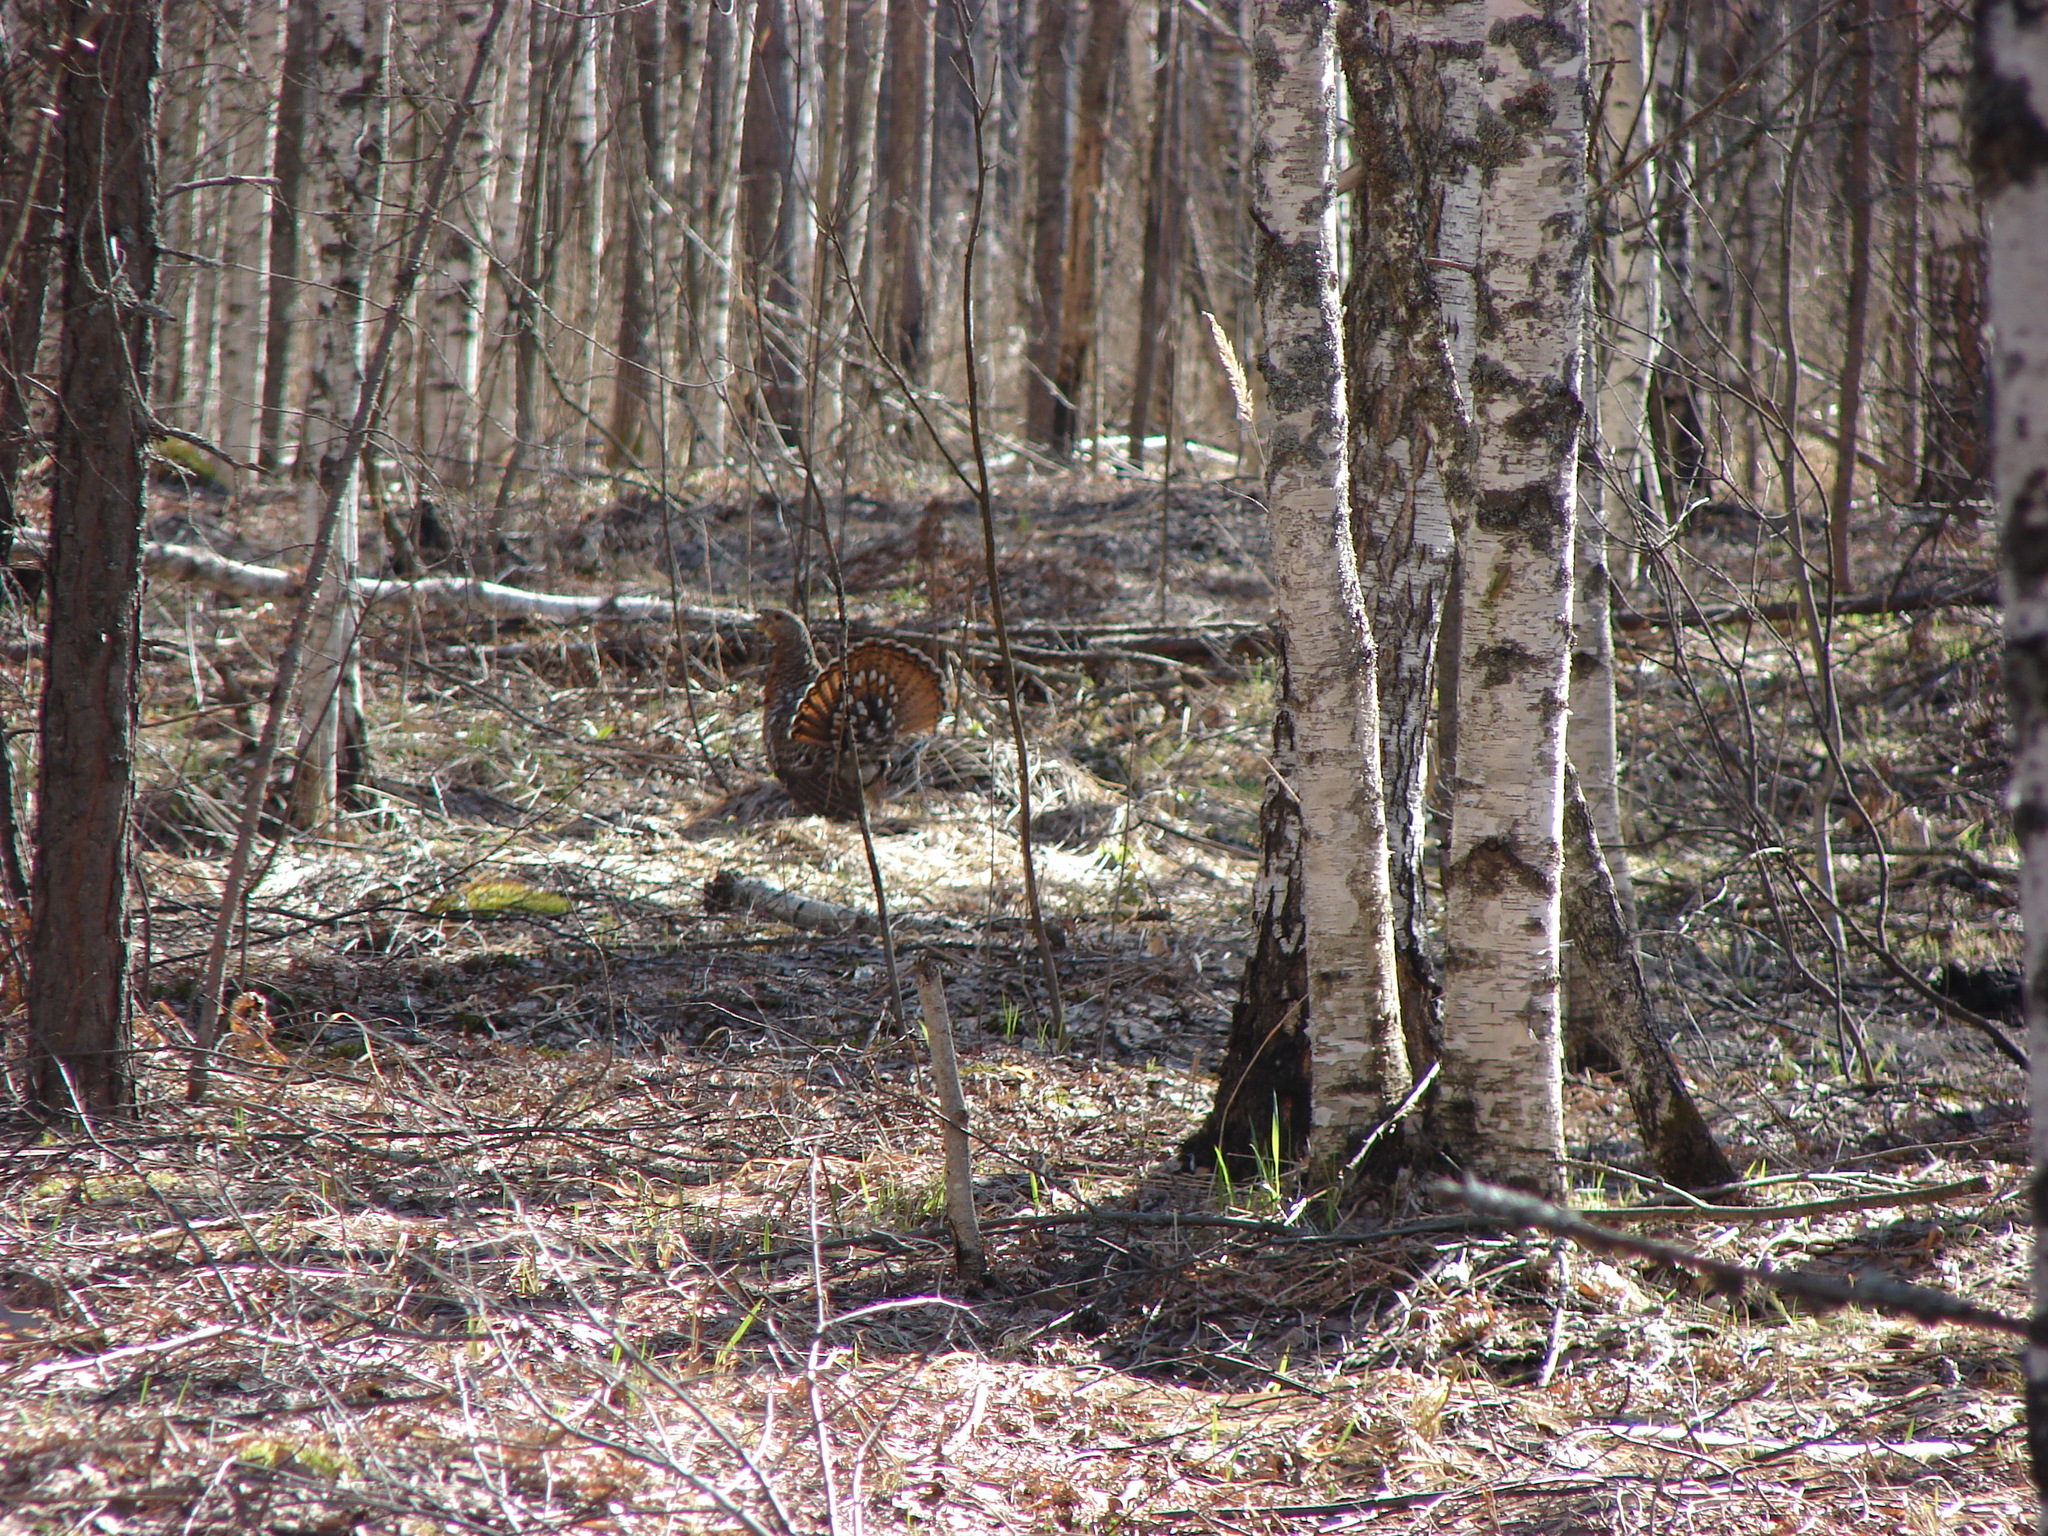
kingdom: Animalia
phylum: Chordata
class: Aves
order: Galliformes
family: Phasianidae
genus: Tetrao
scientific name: Tetrao urogallus
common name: Western capercaillie
